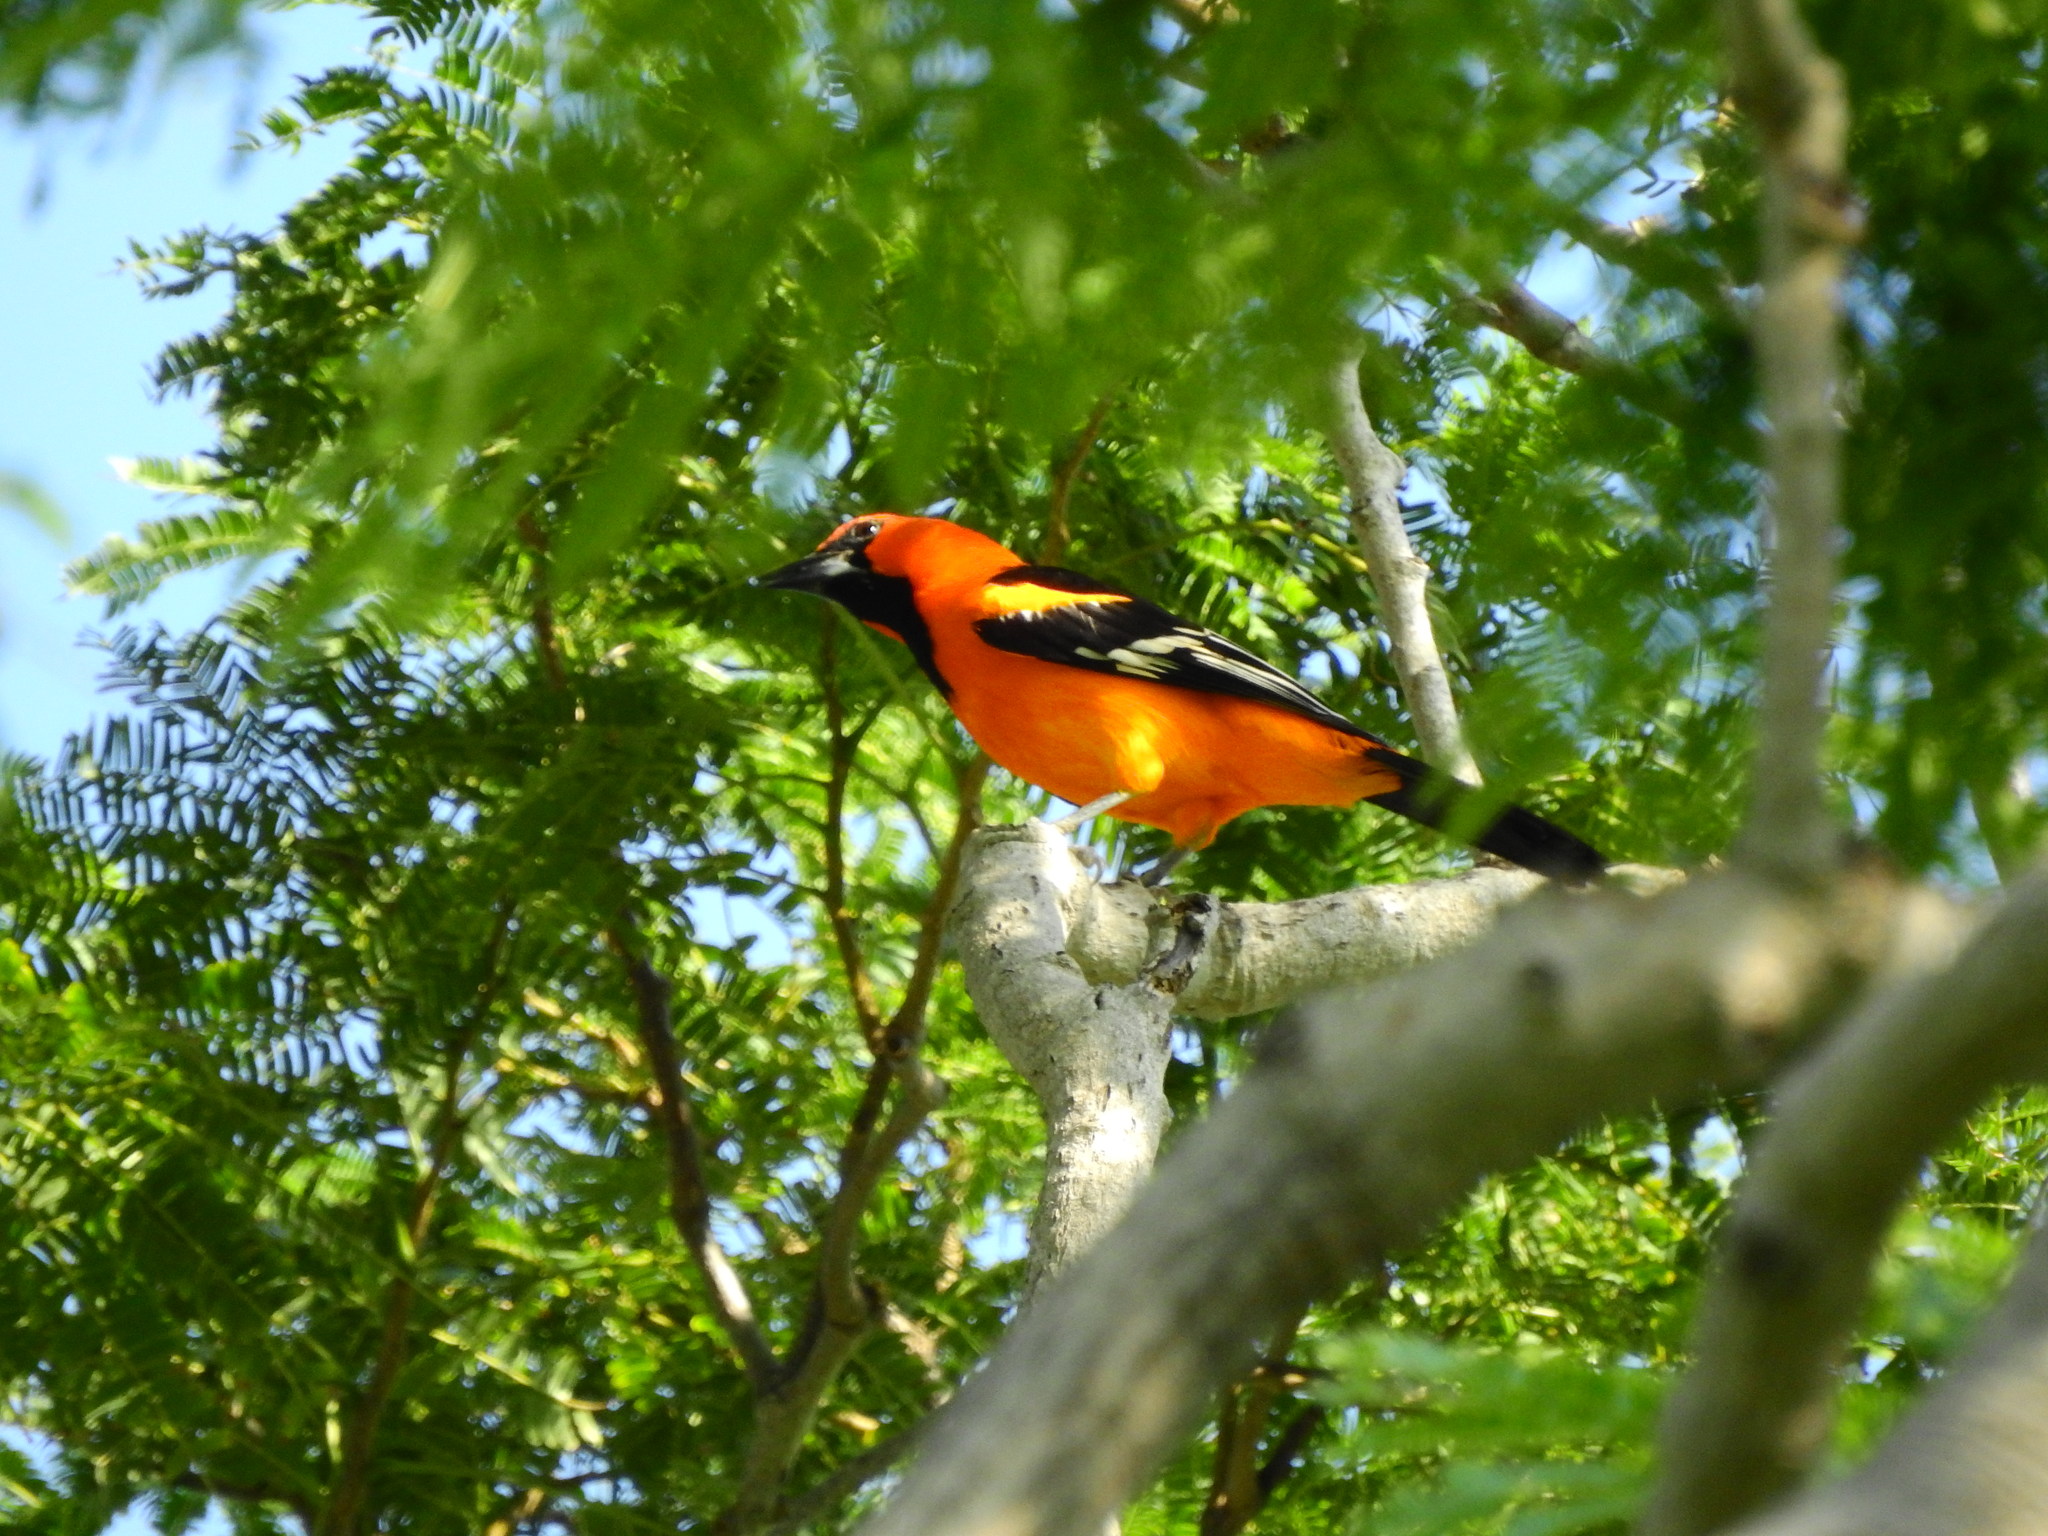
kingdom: Animalia
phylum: Chordata
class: Aves
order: Passeriformes
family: Icteridae
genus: Icterus
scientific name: Icterus gularis
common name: Altamira oriole
